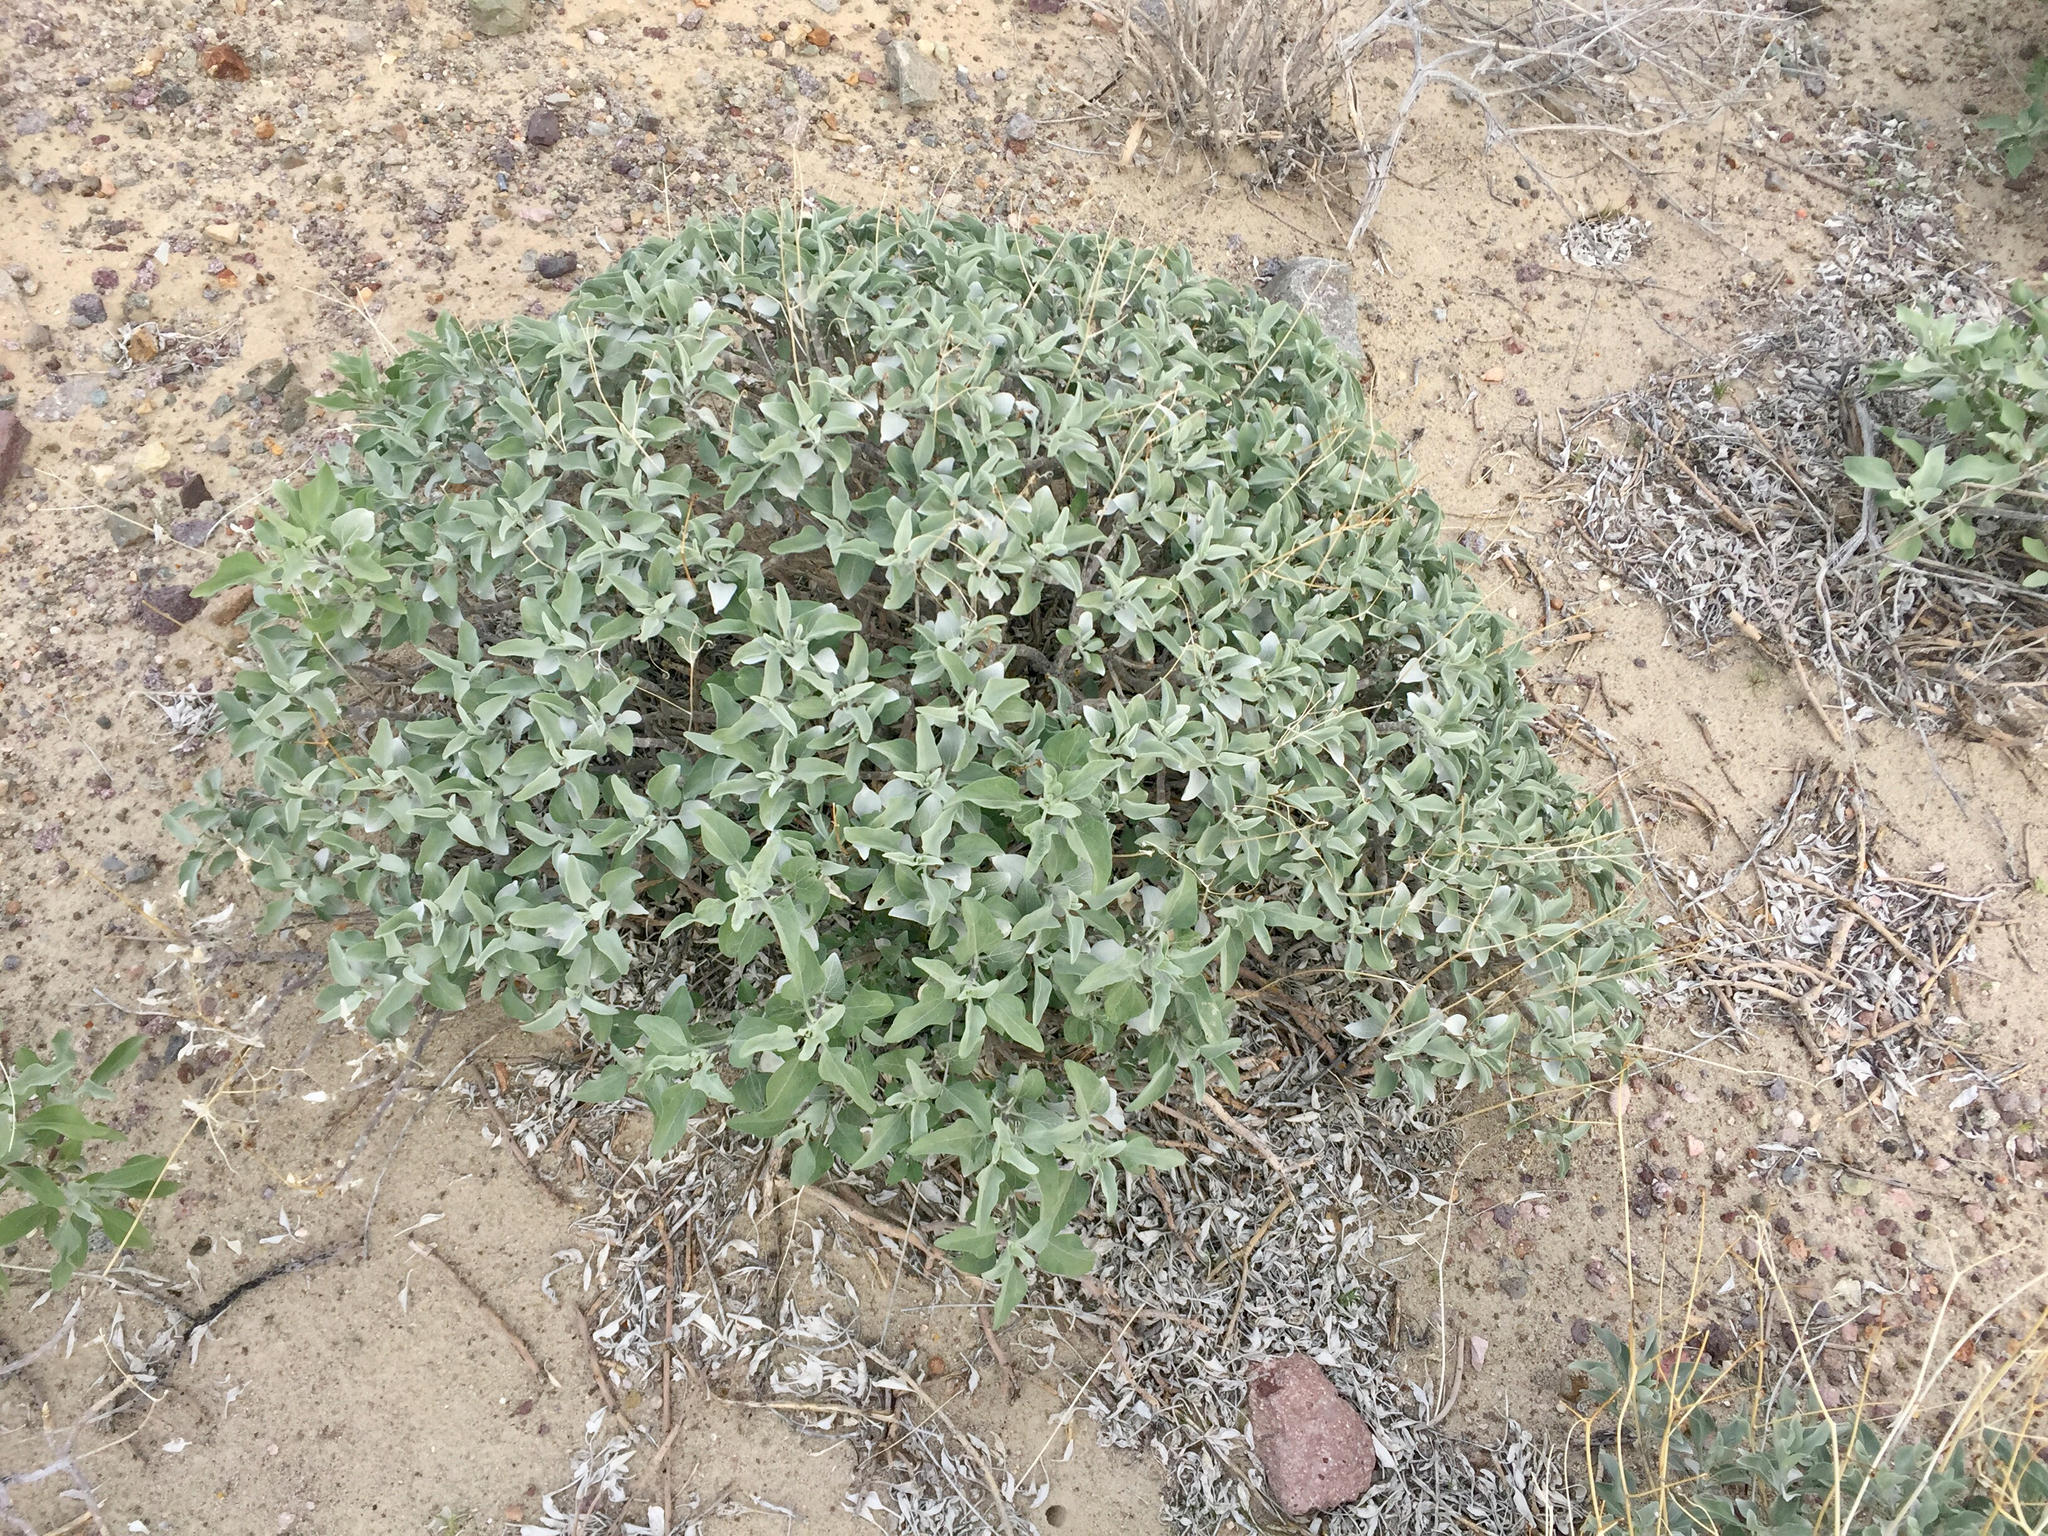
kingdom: Plantae
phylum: Tracheophyta
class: Magnoliopsida
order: Asterales
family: Asteraceae
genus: Encelia
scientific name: Encelia farinosa
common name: Brittlebush
